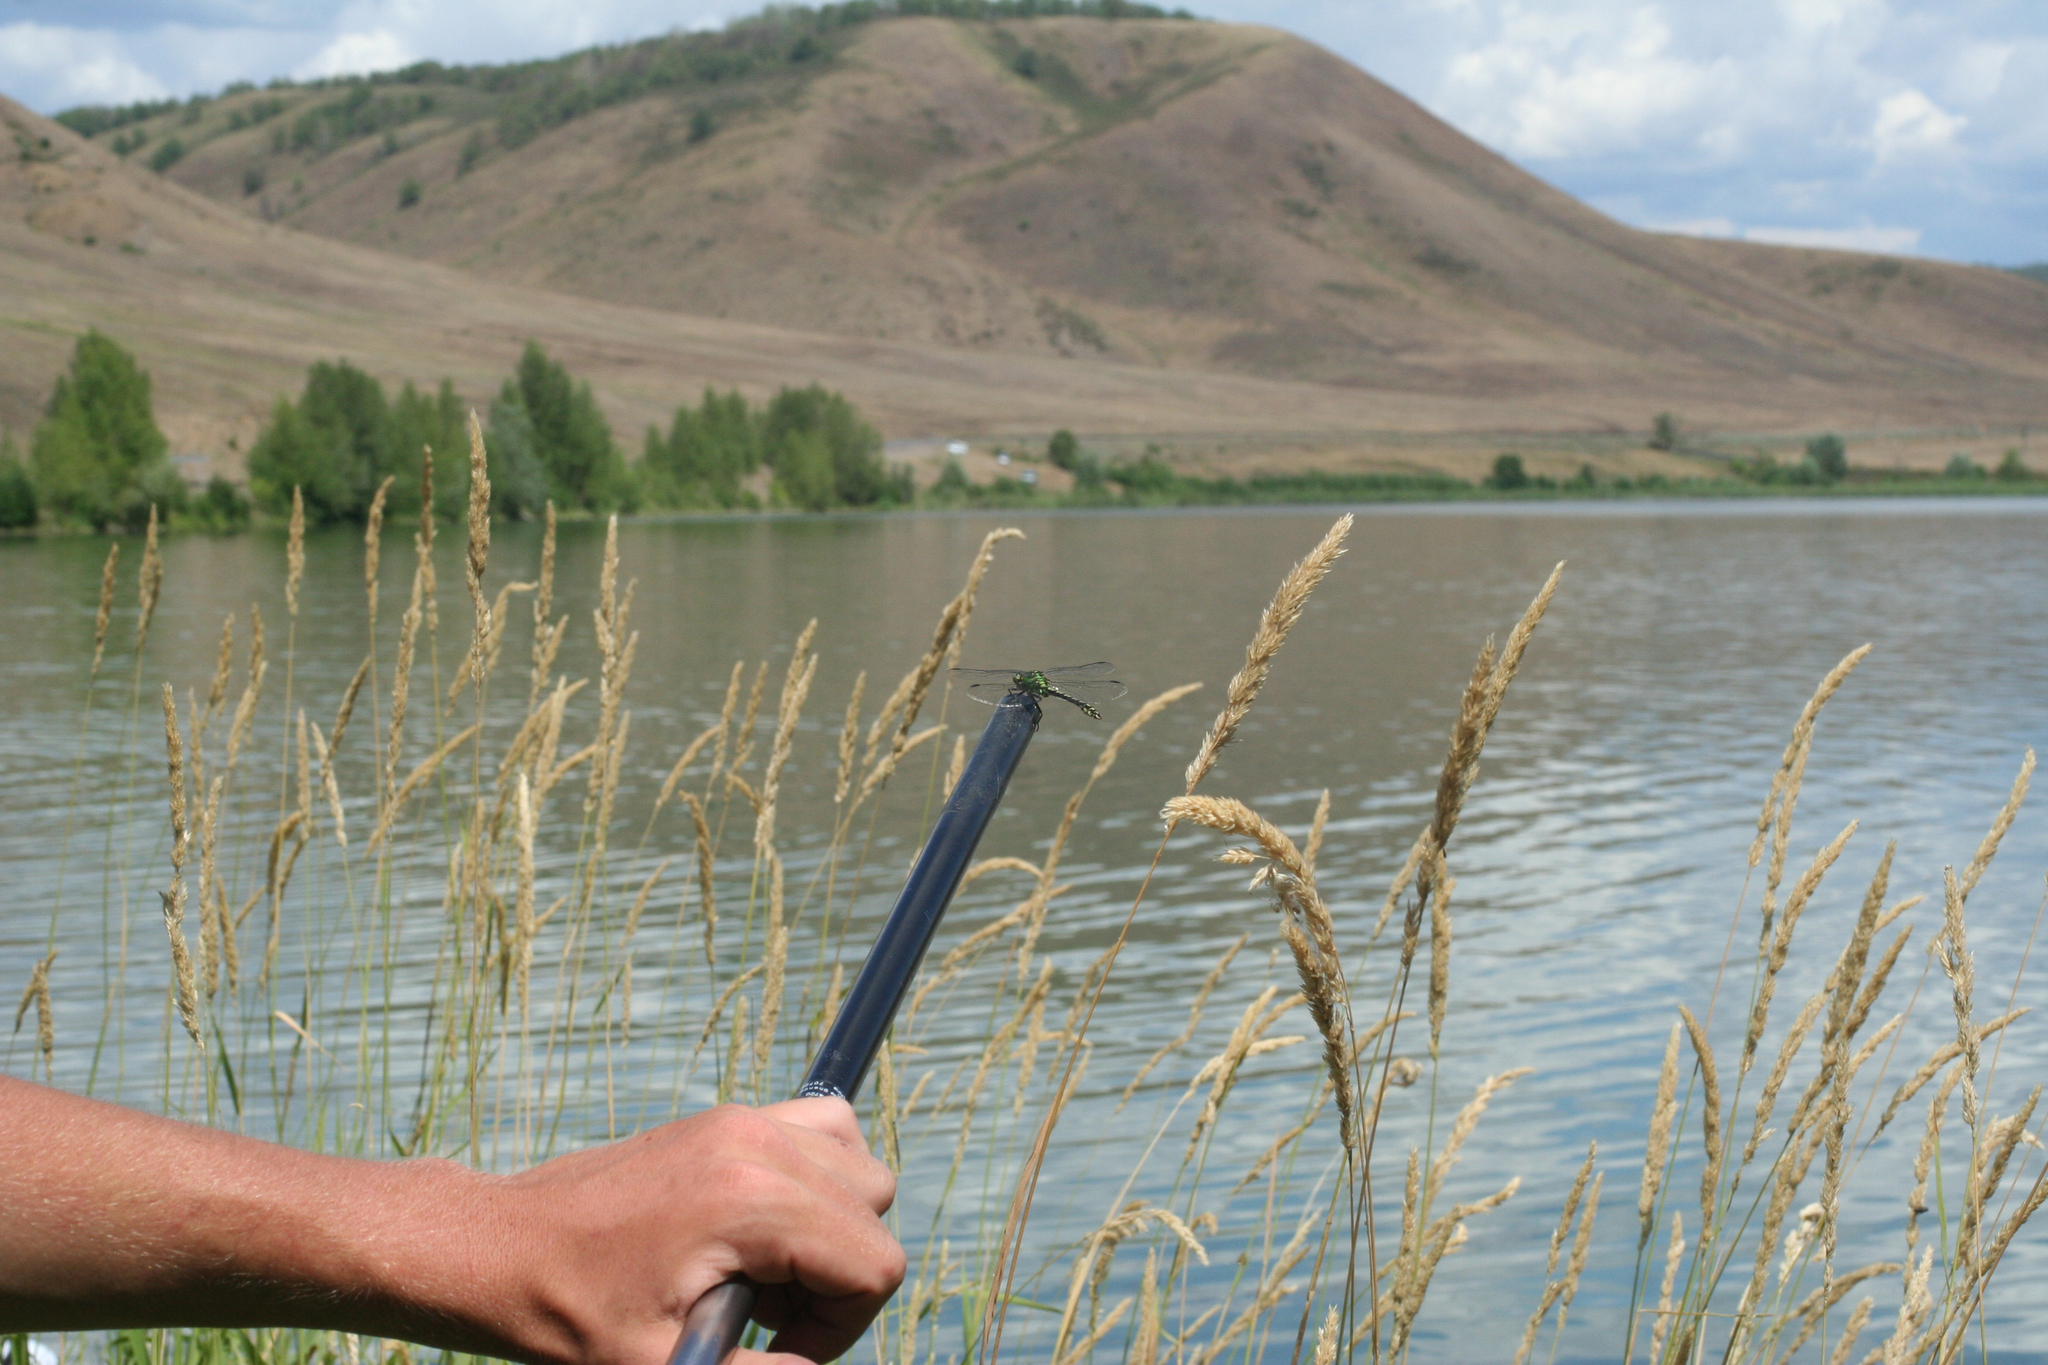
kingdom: Animalia
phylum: Arthropoda
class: Insecta
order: Odonata
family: Gomphidae
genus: Ophiogomphus
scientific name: Ophiogomphus cecilia
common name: Green snaketail
